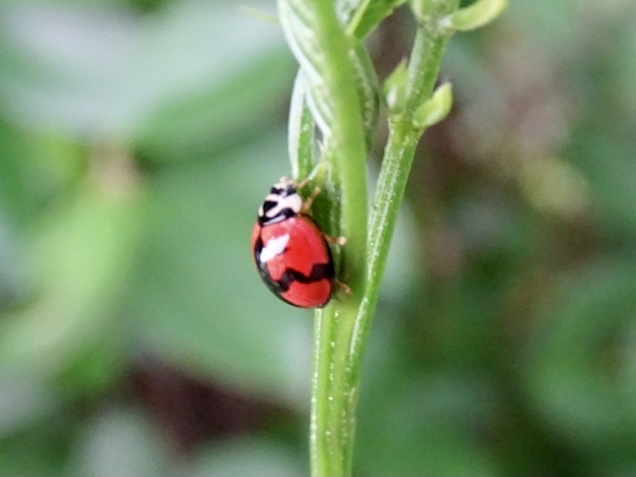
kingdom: Animalia
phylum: Arthropoda
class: Insecta
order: Coleoptera
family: Coccinellidae
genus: Cheilomenes
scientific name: Cheilomenes sexmaculata
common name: Ladybird beetle
